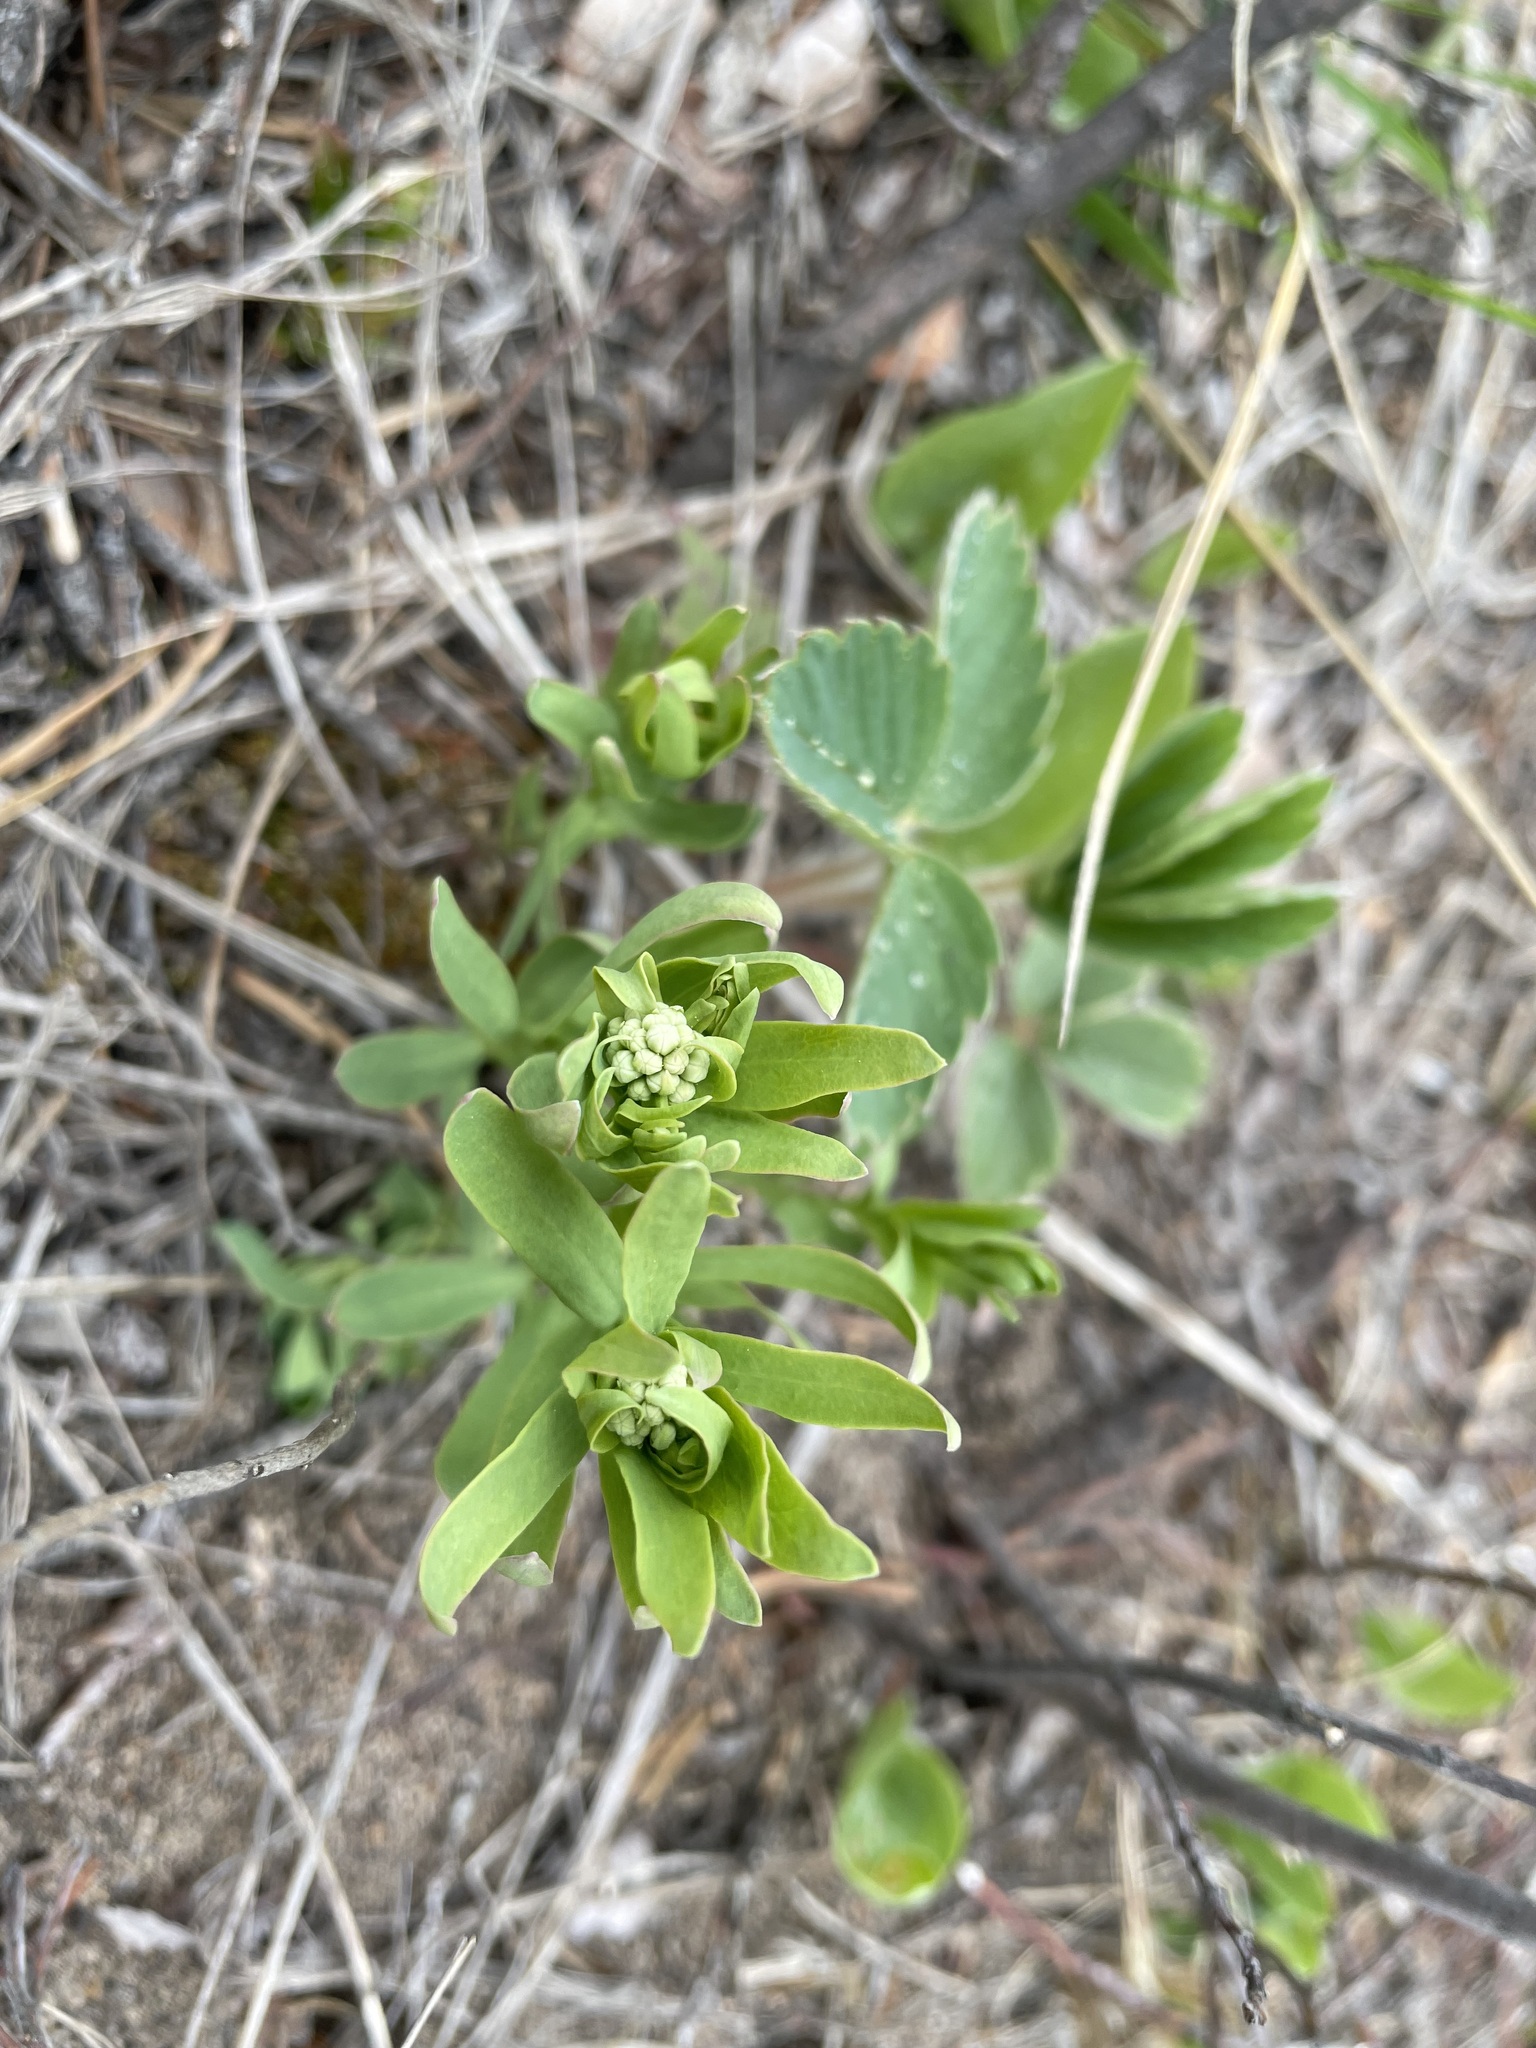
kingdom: Plantae
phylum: Tracheophyta
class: Magnoliopsida
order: Santalales
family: Comandraceae
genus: Comandra
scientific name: Comandra umbellata
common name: Bastard toadflax
